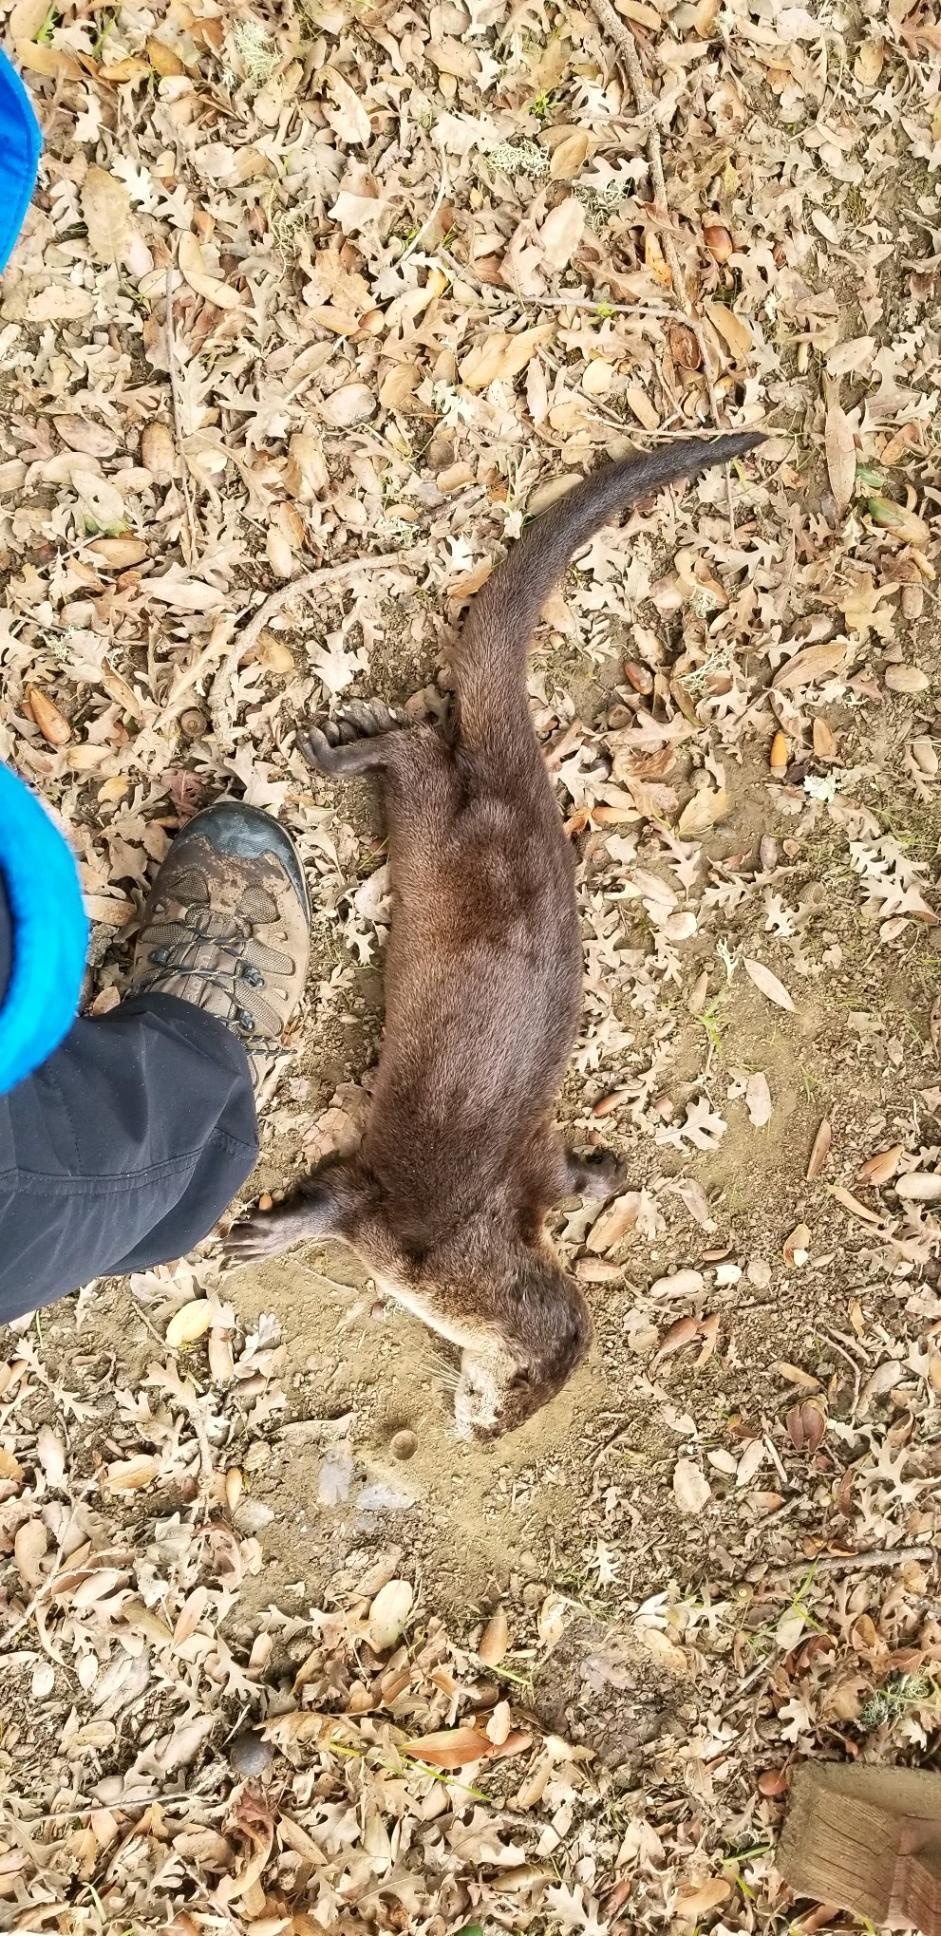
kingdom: Animalia
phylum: Chordata
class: Mammalia
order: Carnivora
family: Mustelidae
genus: Lontra
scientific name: Lontra canadensis
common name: North american river otter
